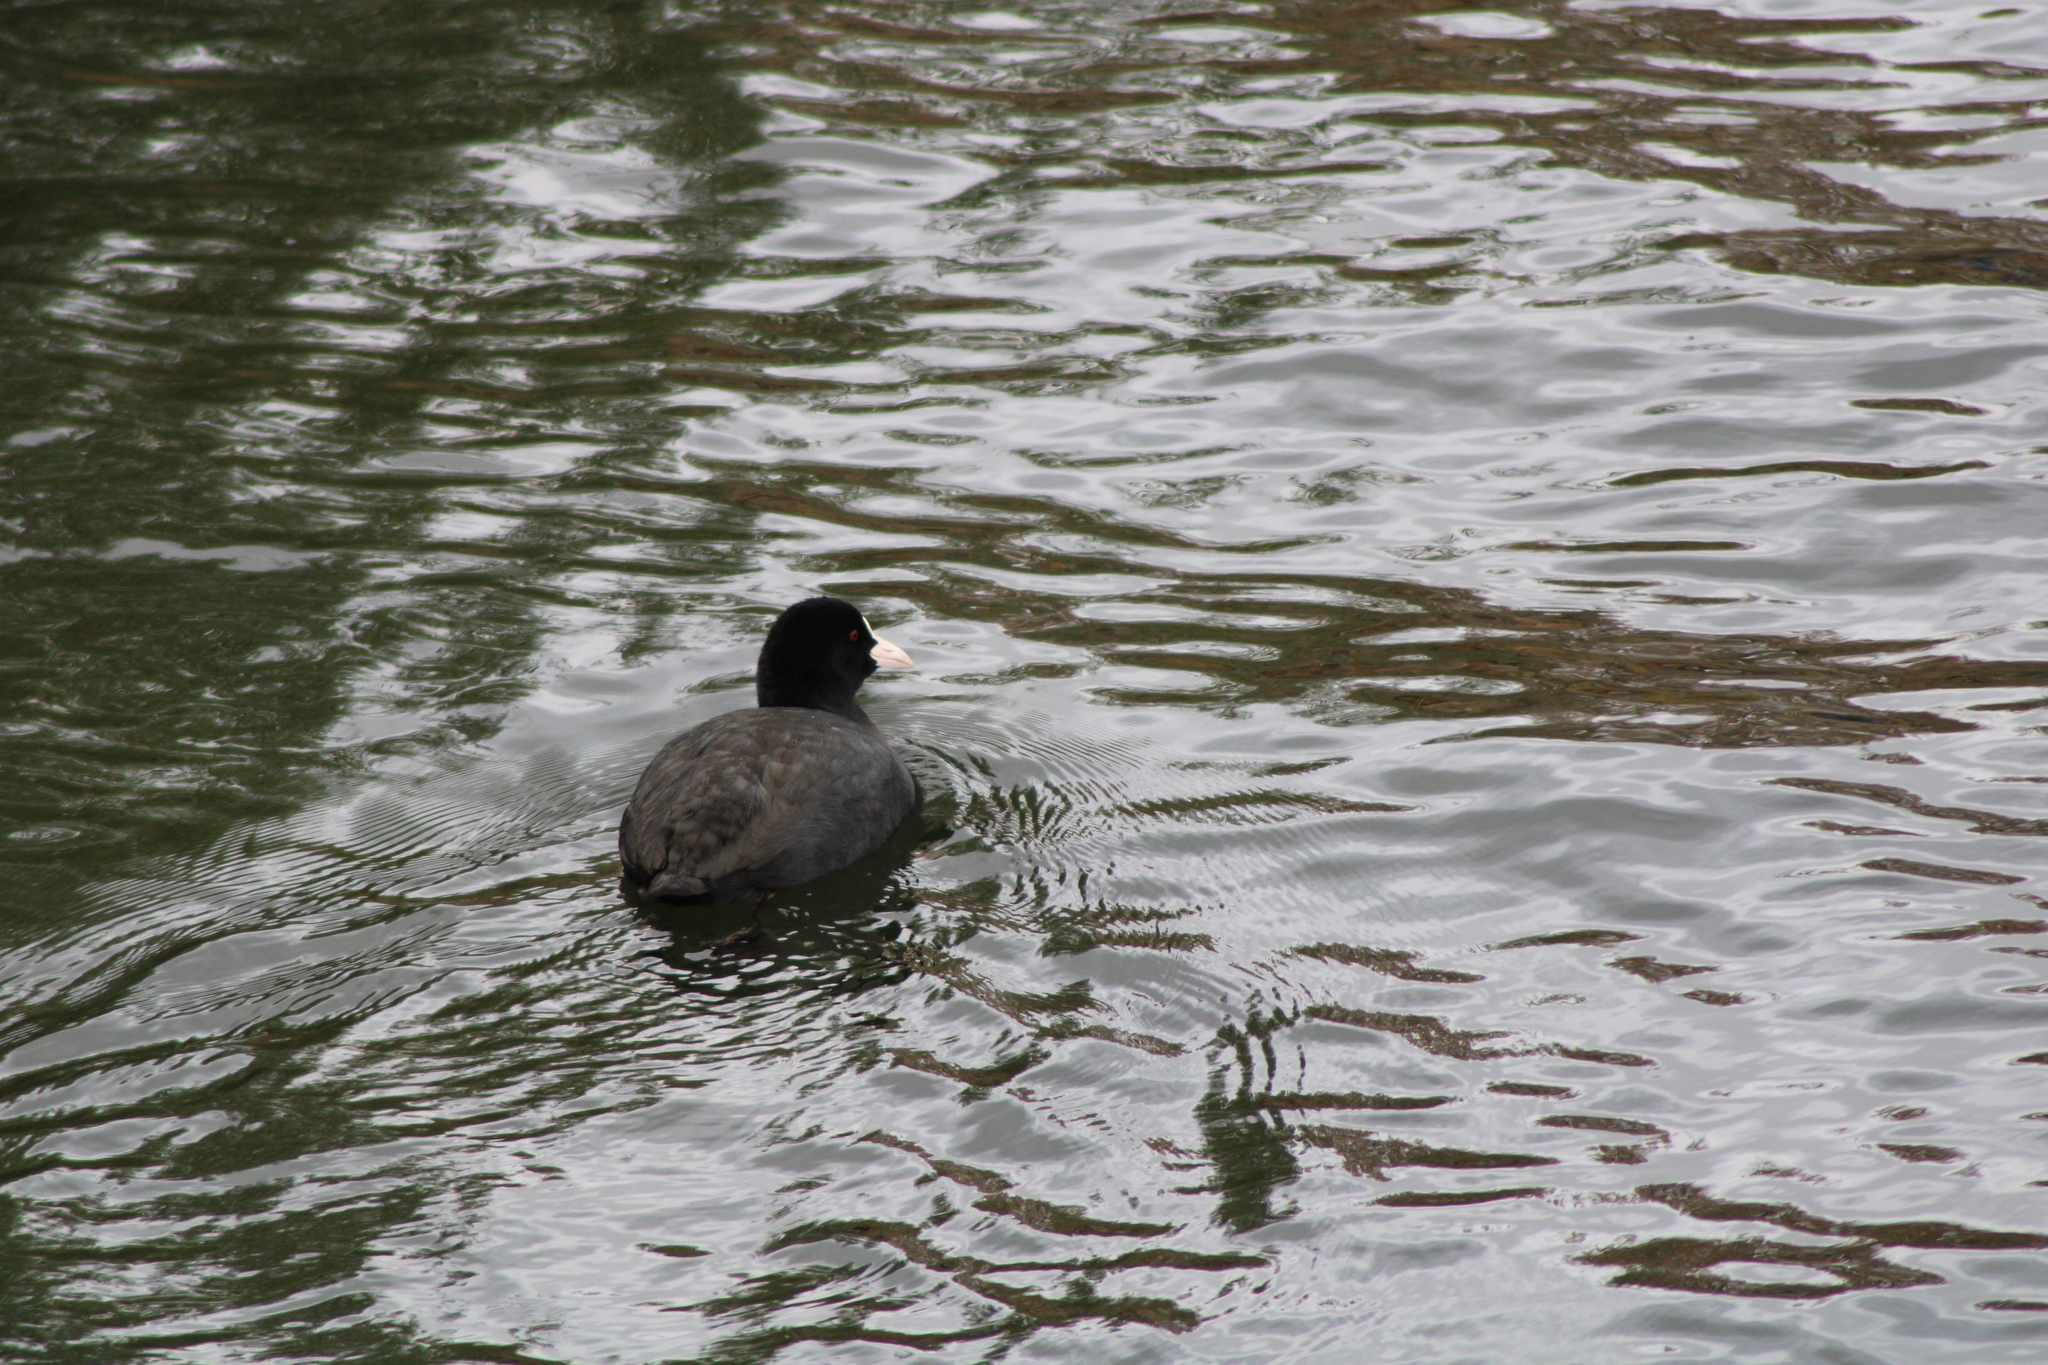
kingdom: Animalia
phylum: Chordata
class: Aves
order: Gruiformes
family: Rallidae
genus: Fulica
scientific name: Fulica atra
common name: Eurasian coot
